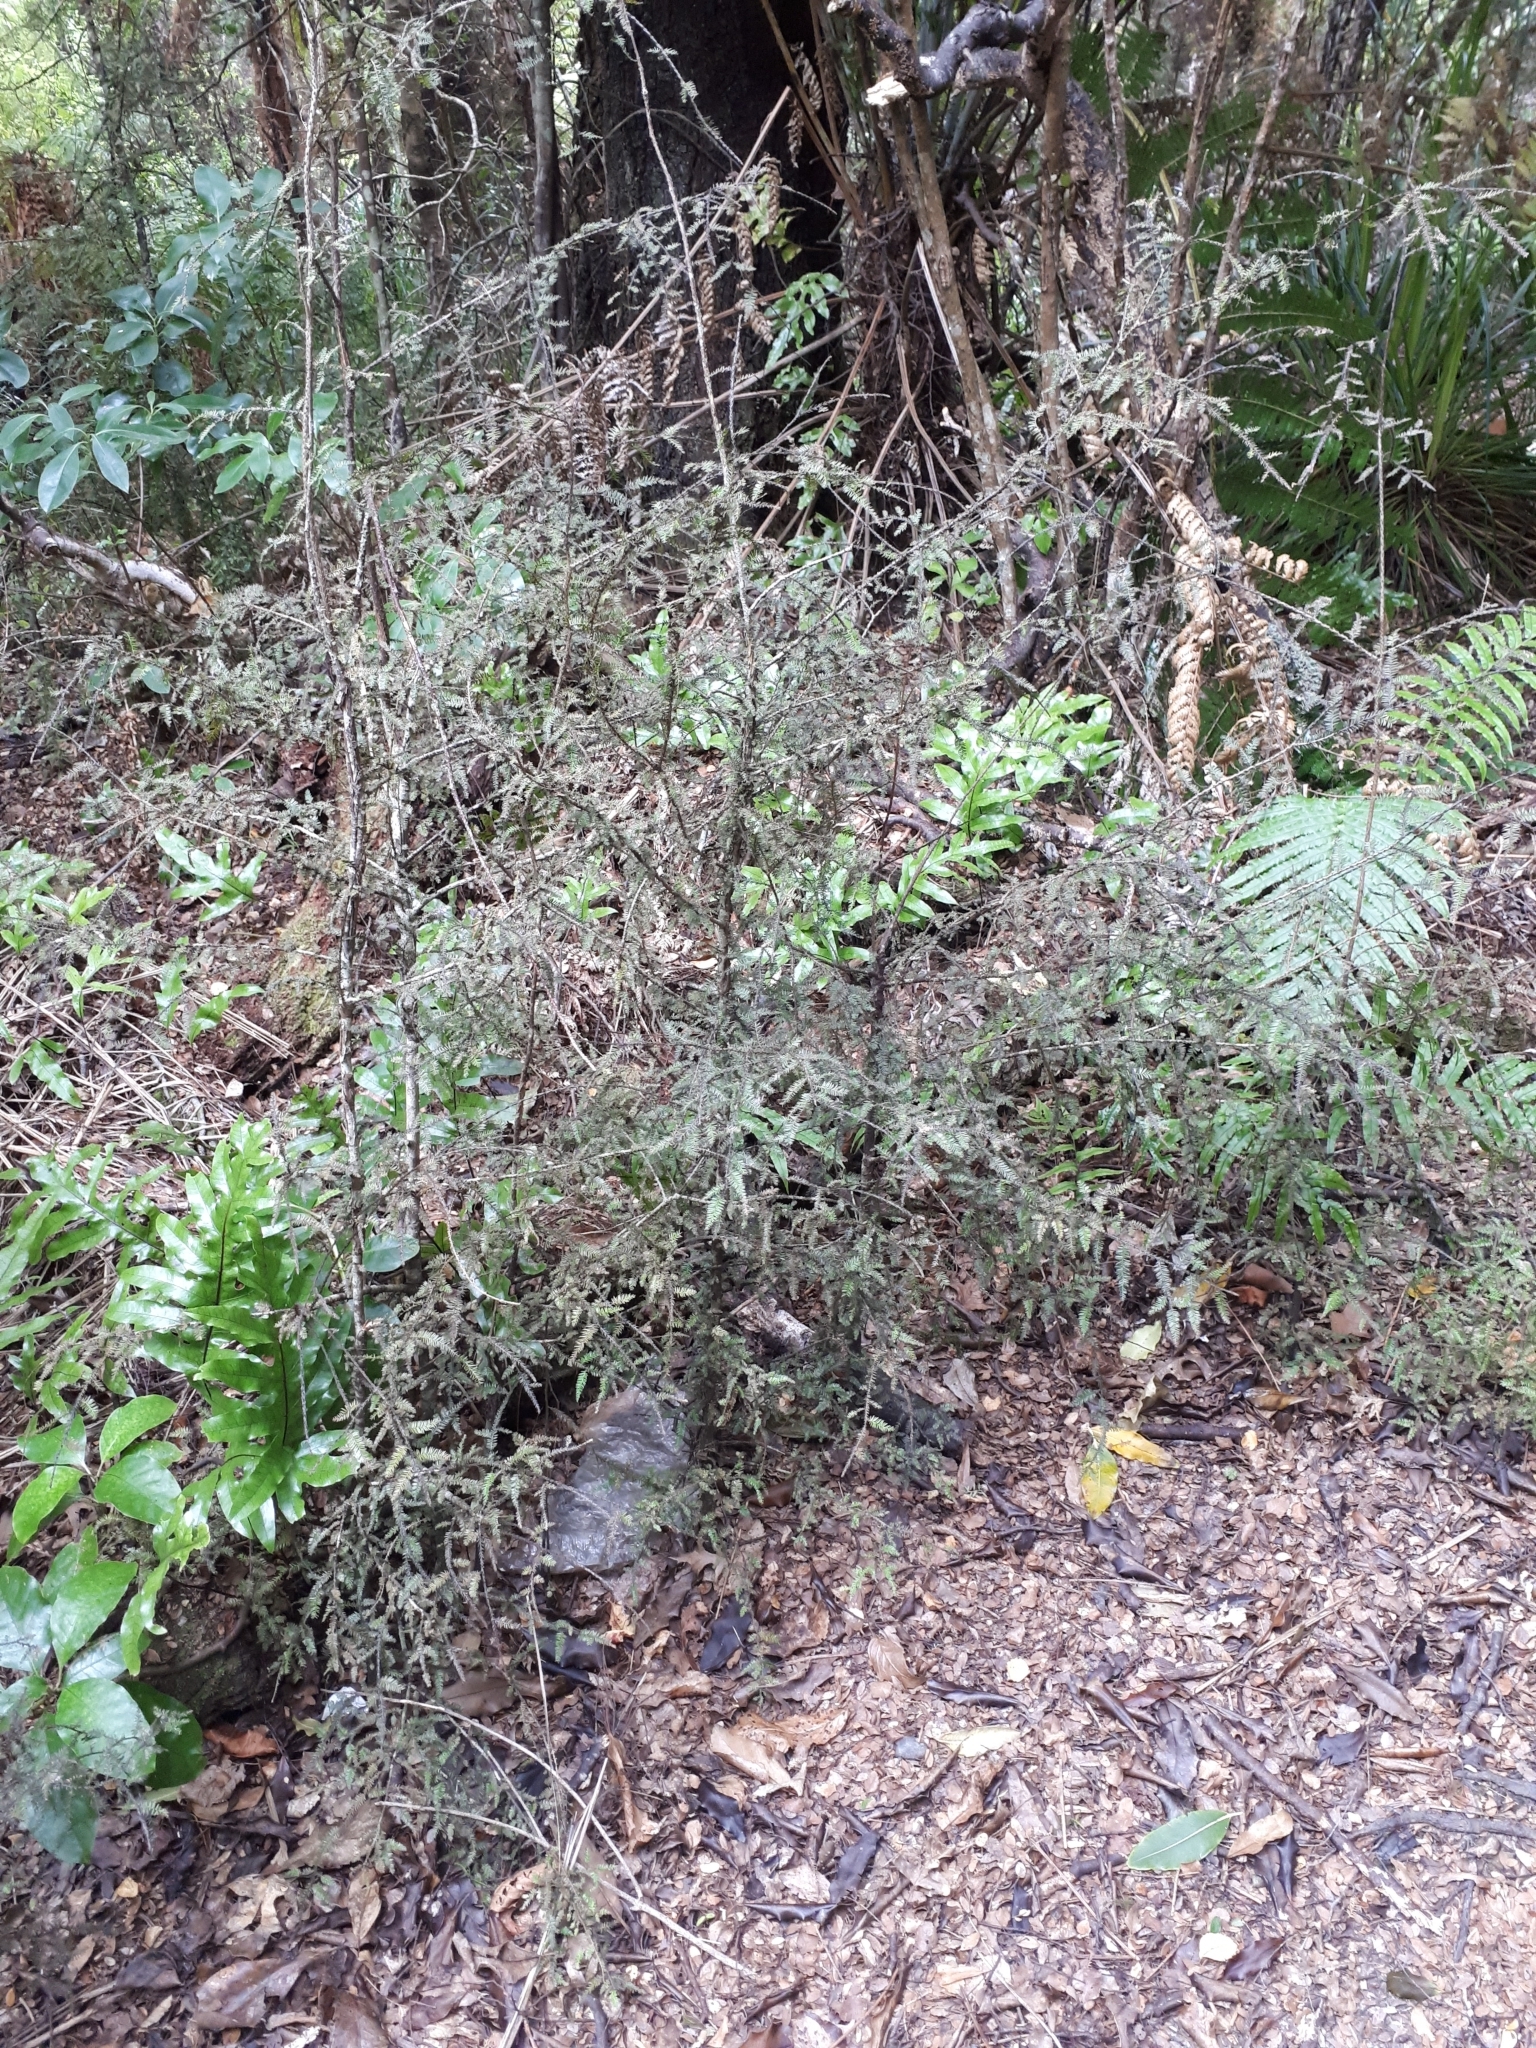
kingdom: Plantae
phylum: Tracheophyta
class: Pinopsida
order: Pinales
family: Podocarpaceae
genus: Dacrycarpus
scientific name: Dacrycarpus dacrydioides
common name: White pine
